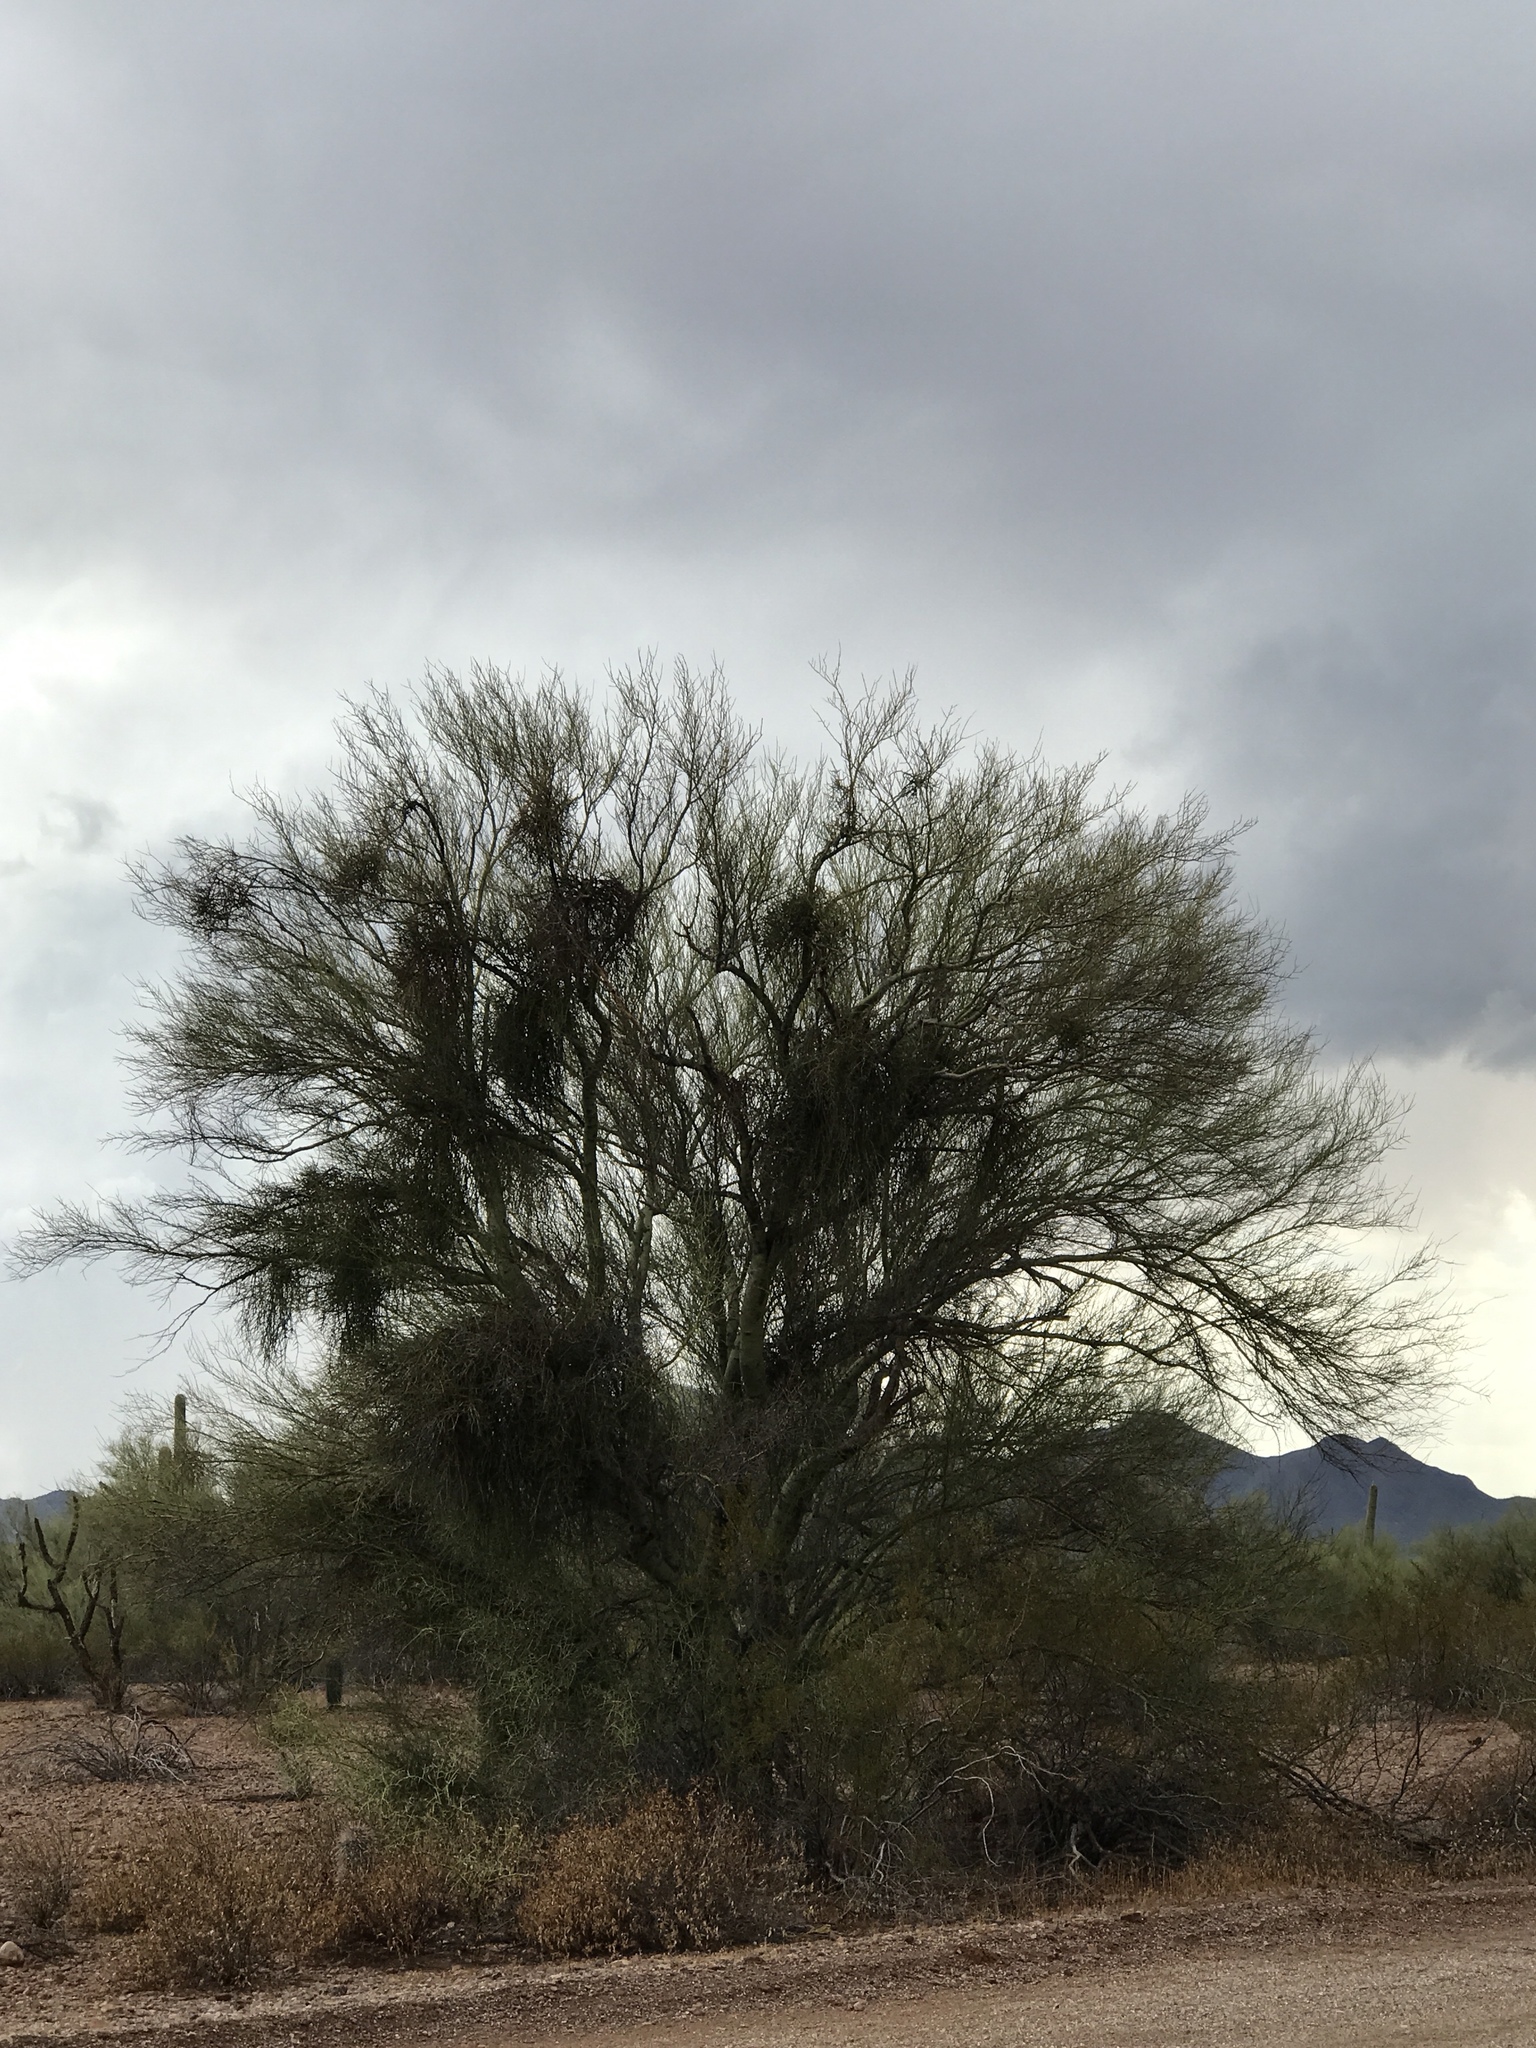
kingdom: Plantae
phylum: Tracheophyta
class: Magnoliopsida
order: Fabales
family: Fabaceae
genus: Parkinsonia
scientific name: Parkinsonia florida
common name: Blue paloverde
